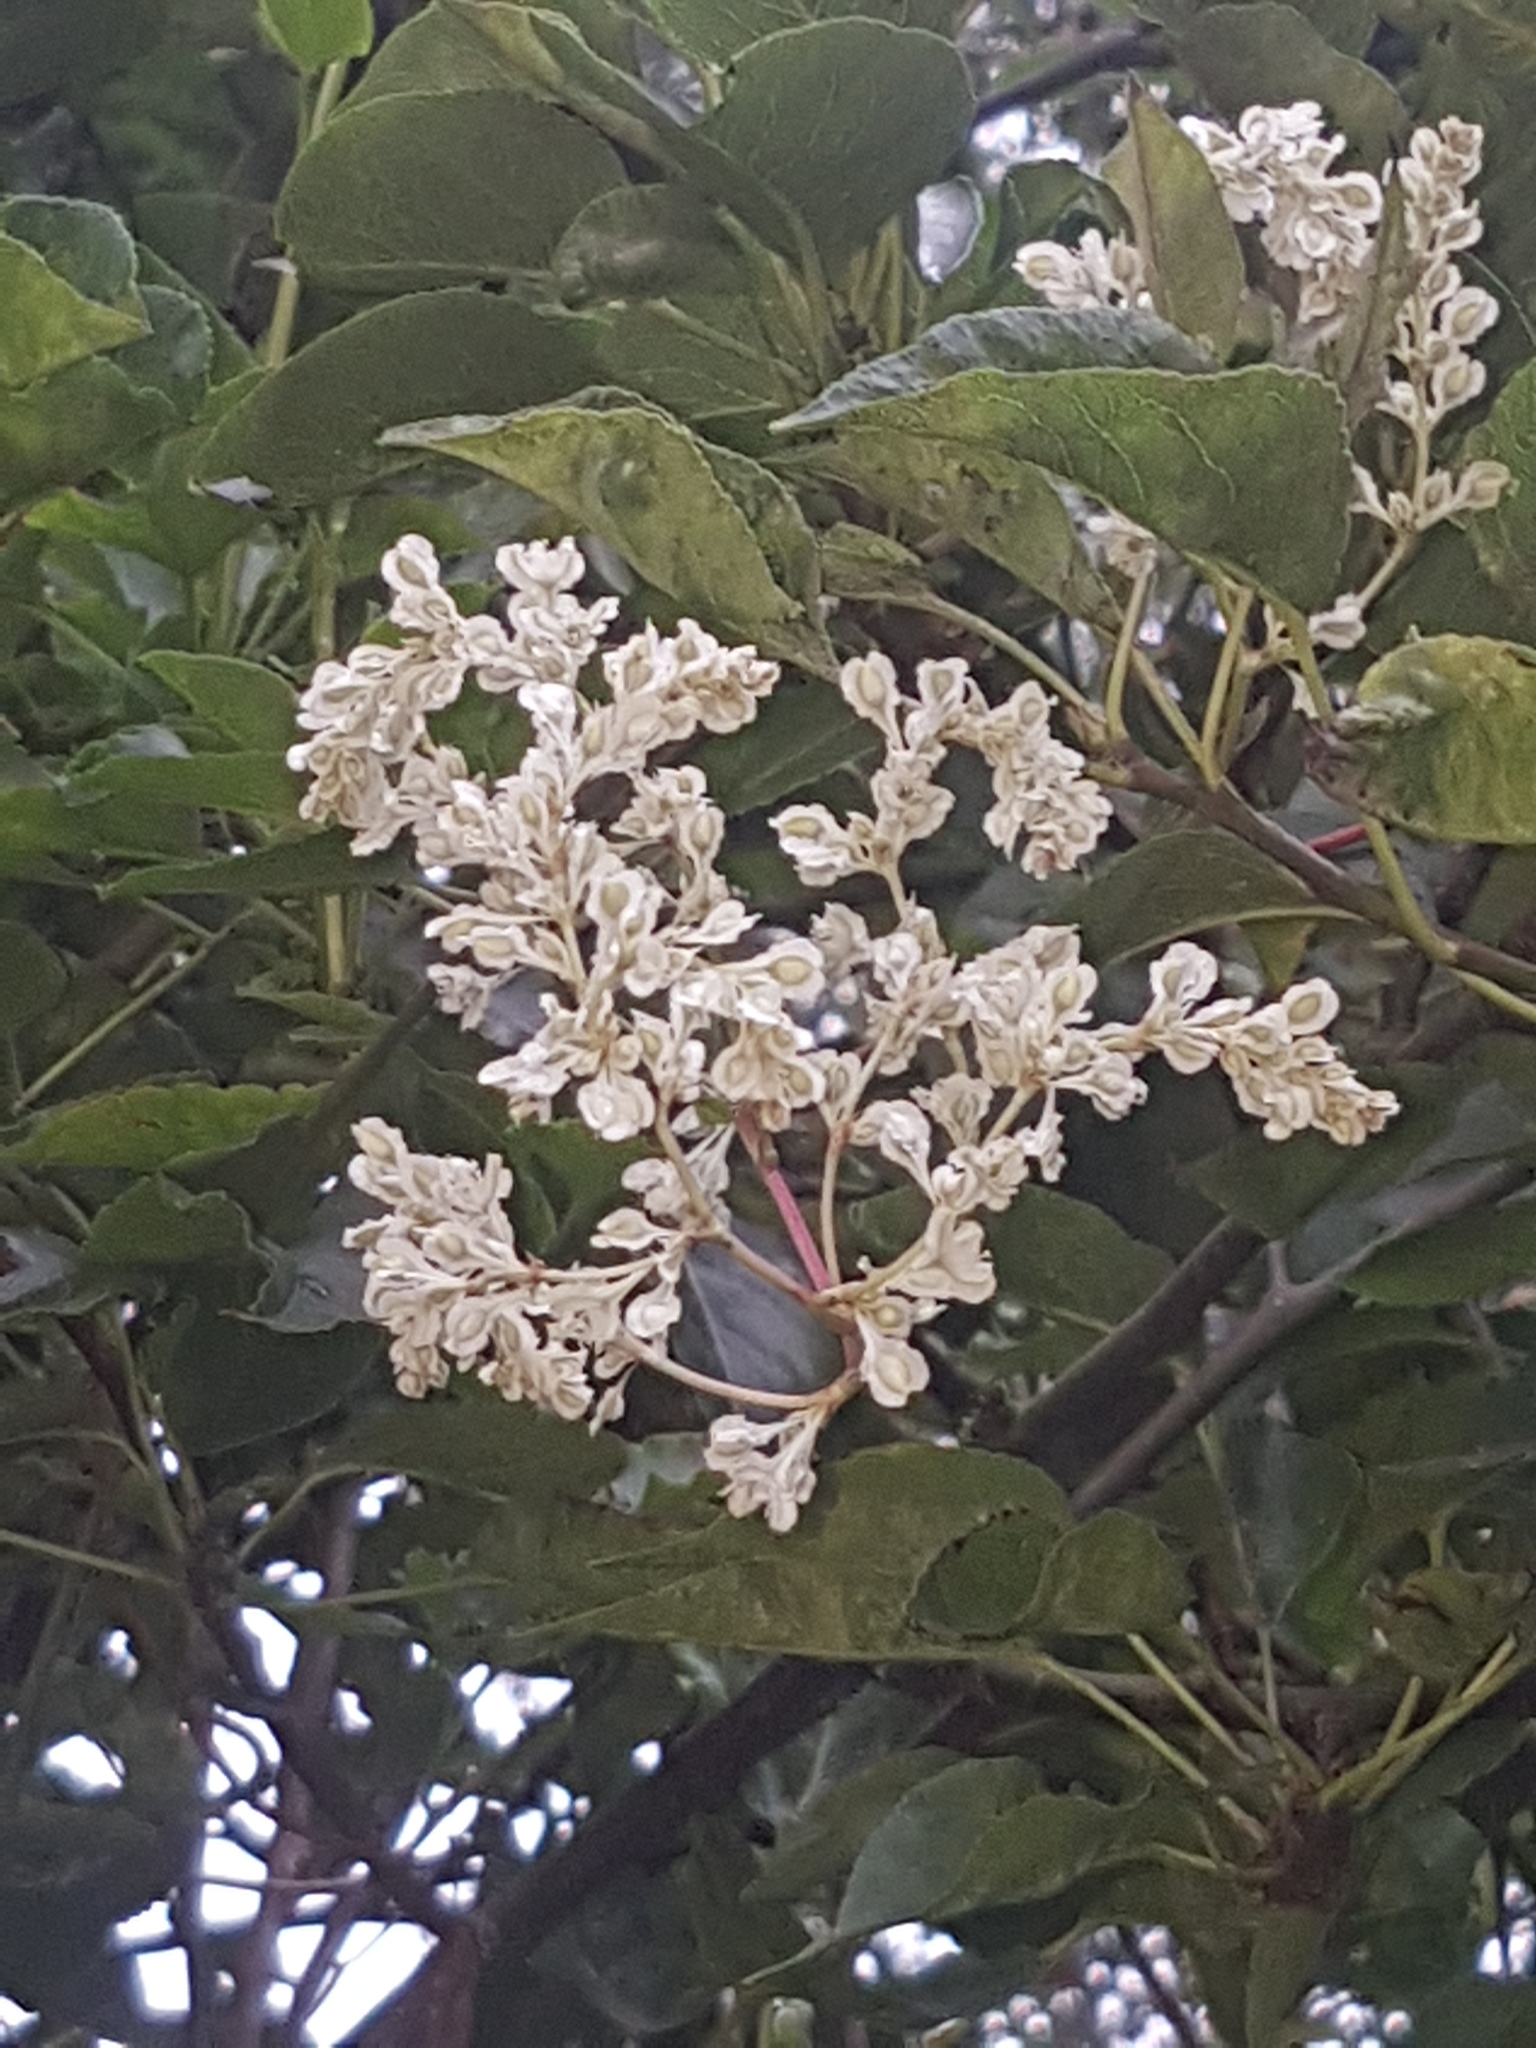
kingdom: Plantae
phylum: Tracheophyta
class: Magnoliopsida
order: Caryophyllales
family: Polygonaceae
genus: Fallopia
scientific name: Fallopia baldschuanica
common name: Russian-vine
